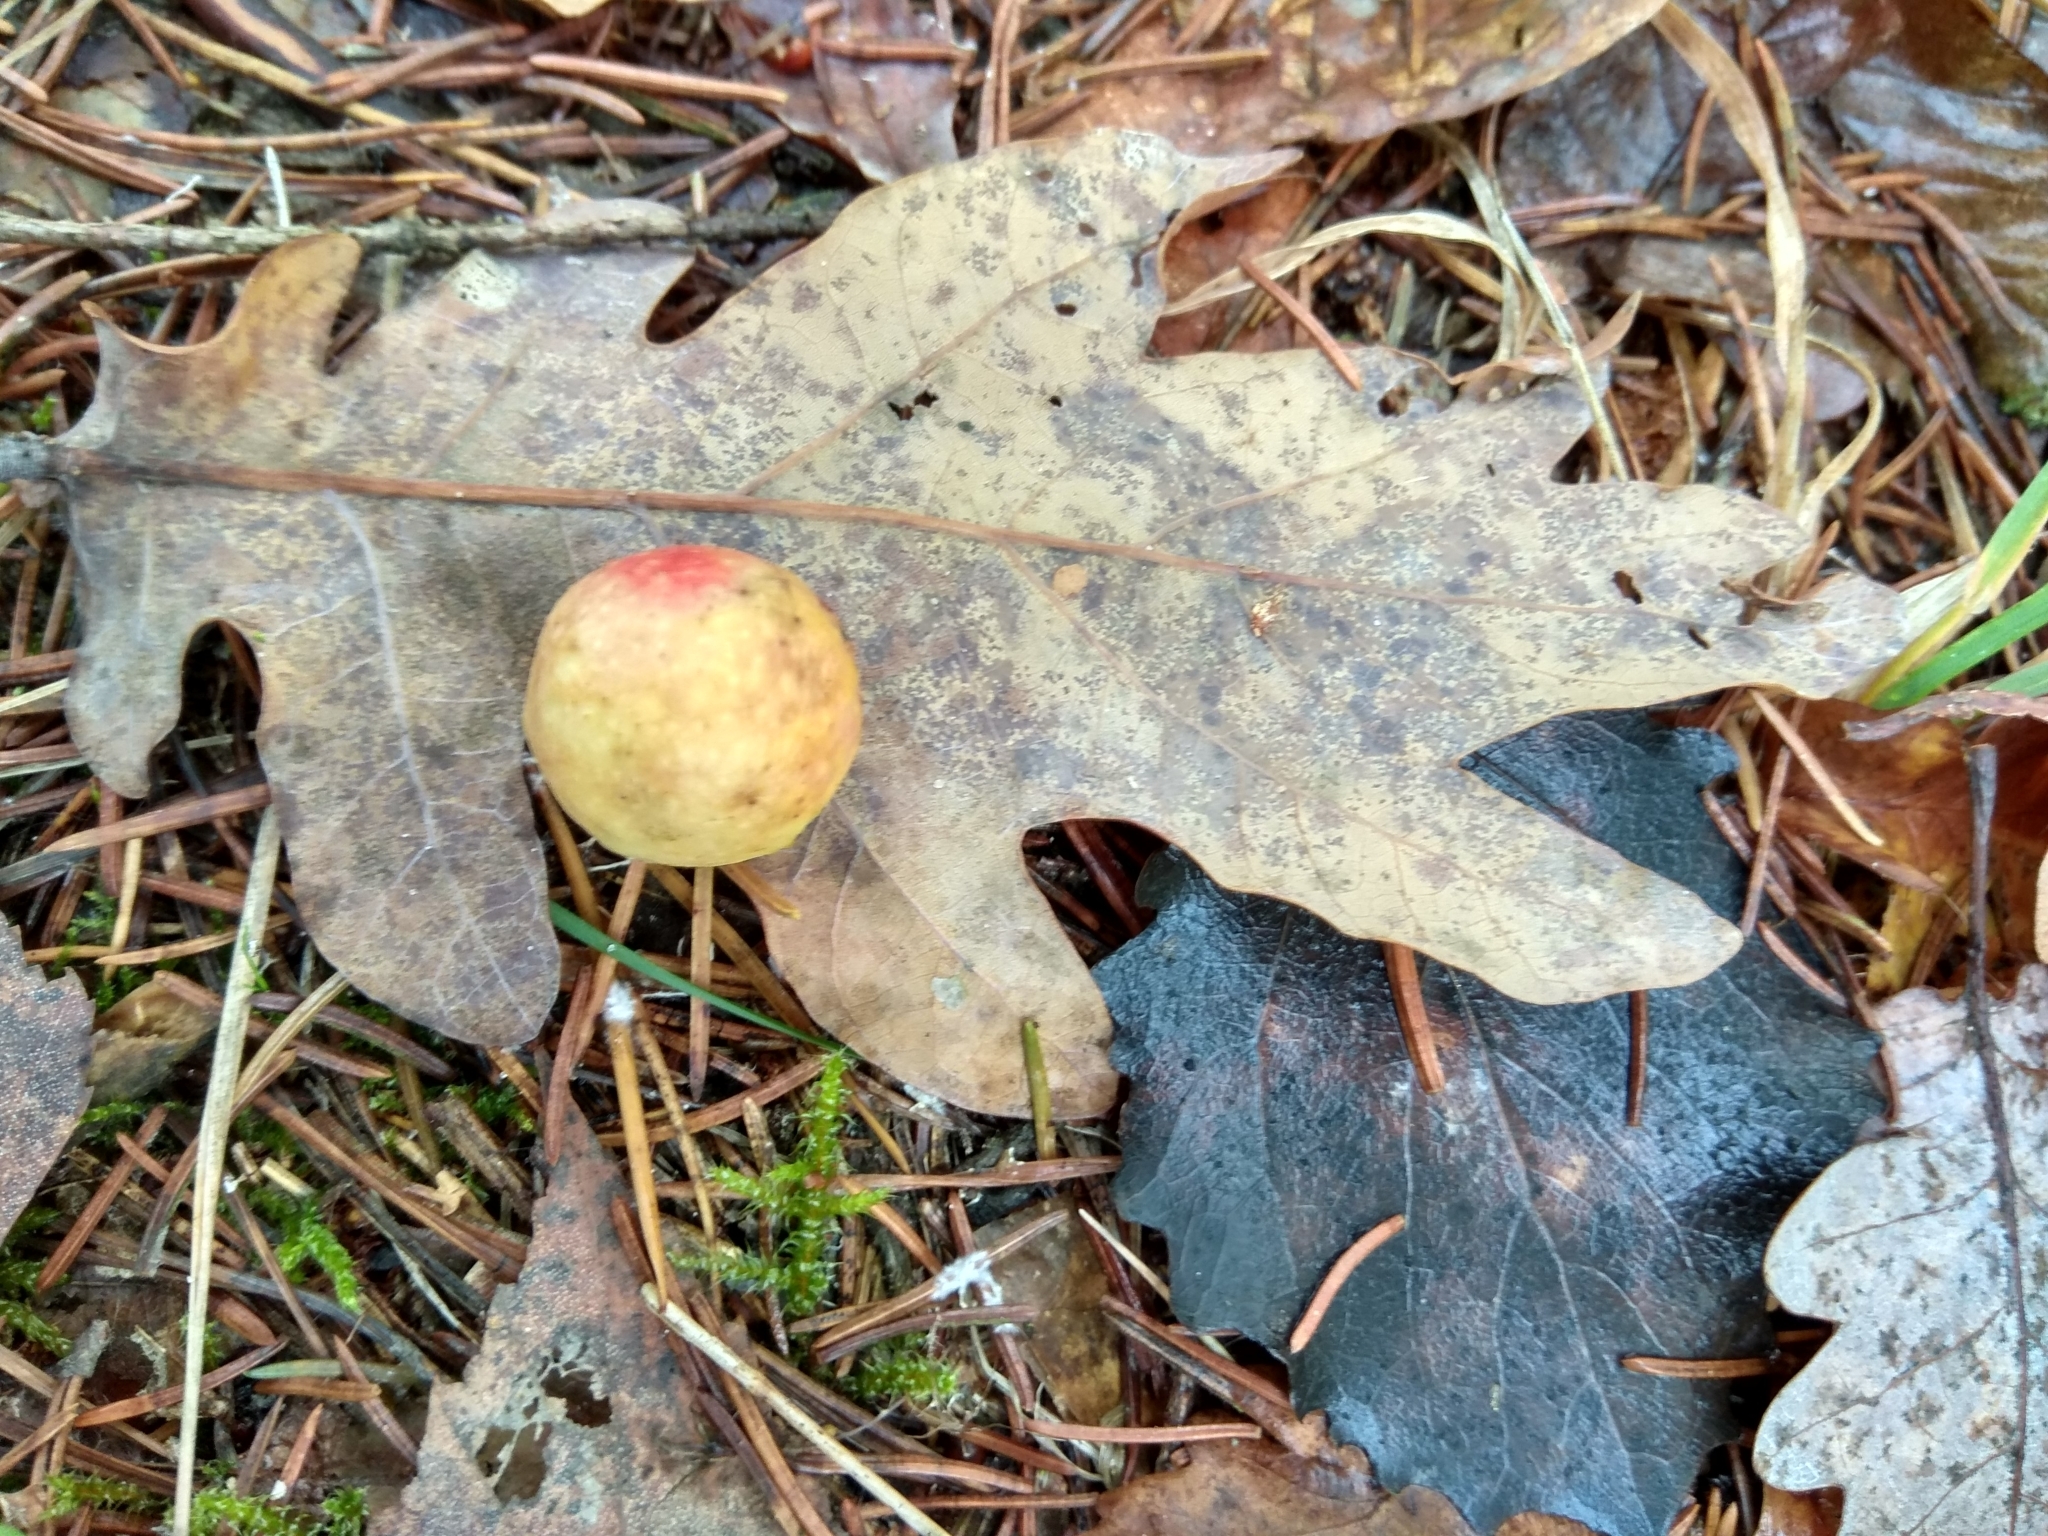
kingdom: Animalia
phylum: Arthropoda
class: Insecta
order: Hymenoptera
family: Cynipidae
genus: Cynips
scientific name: Cynips quercusfolii
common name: Cherry gall
